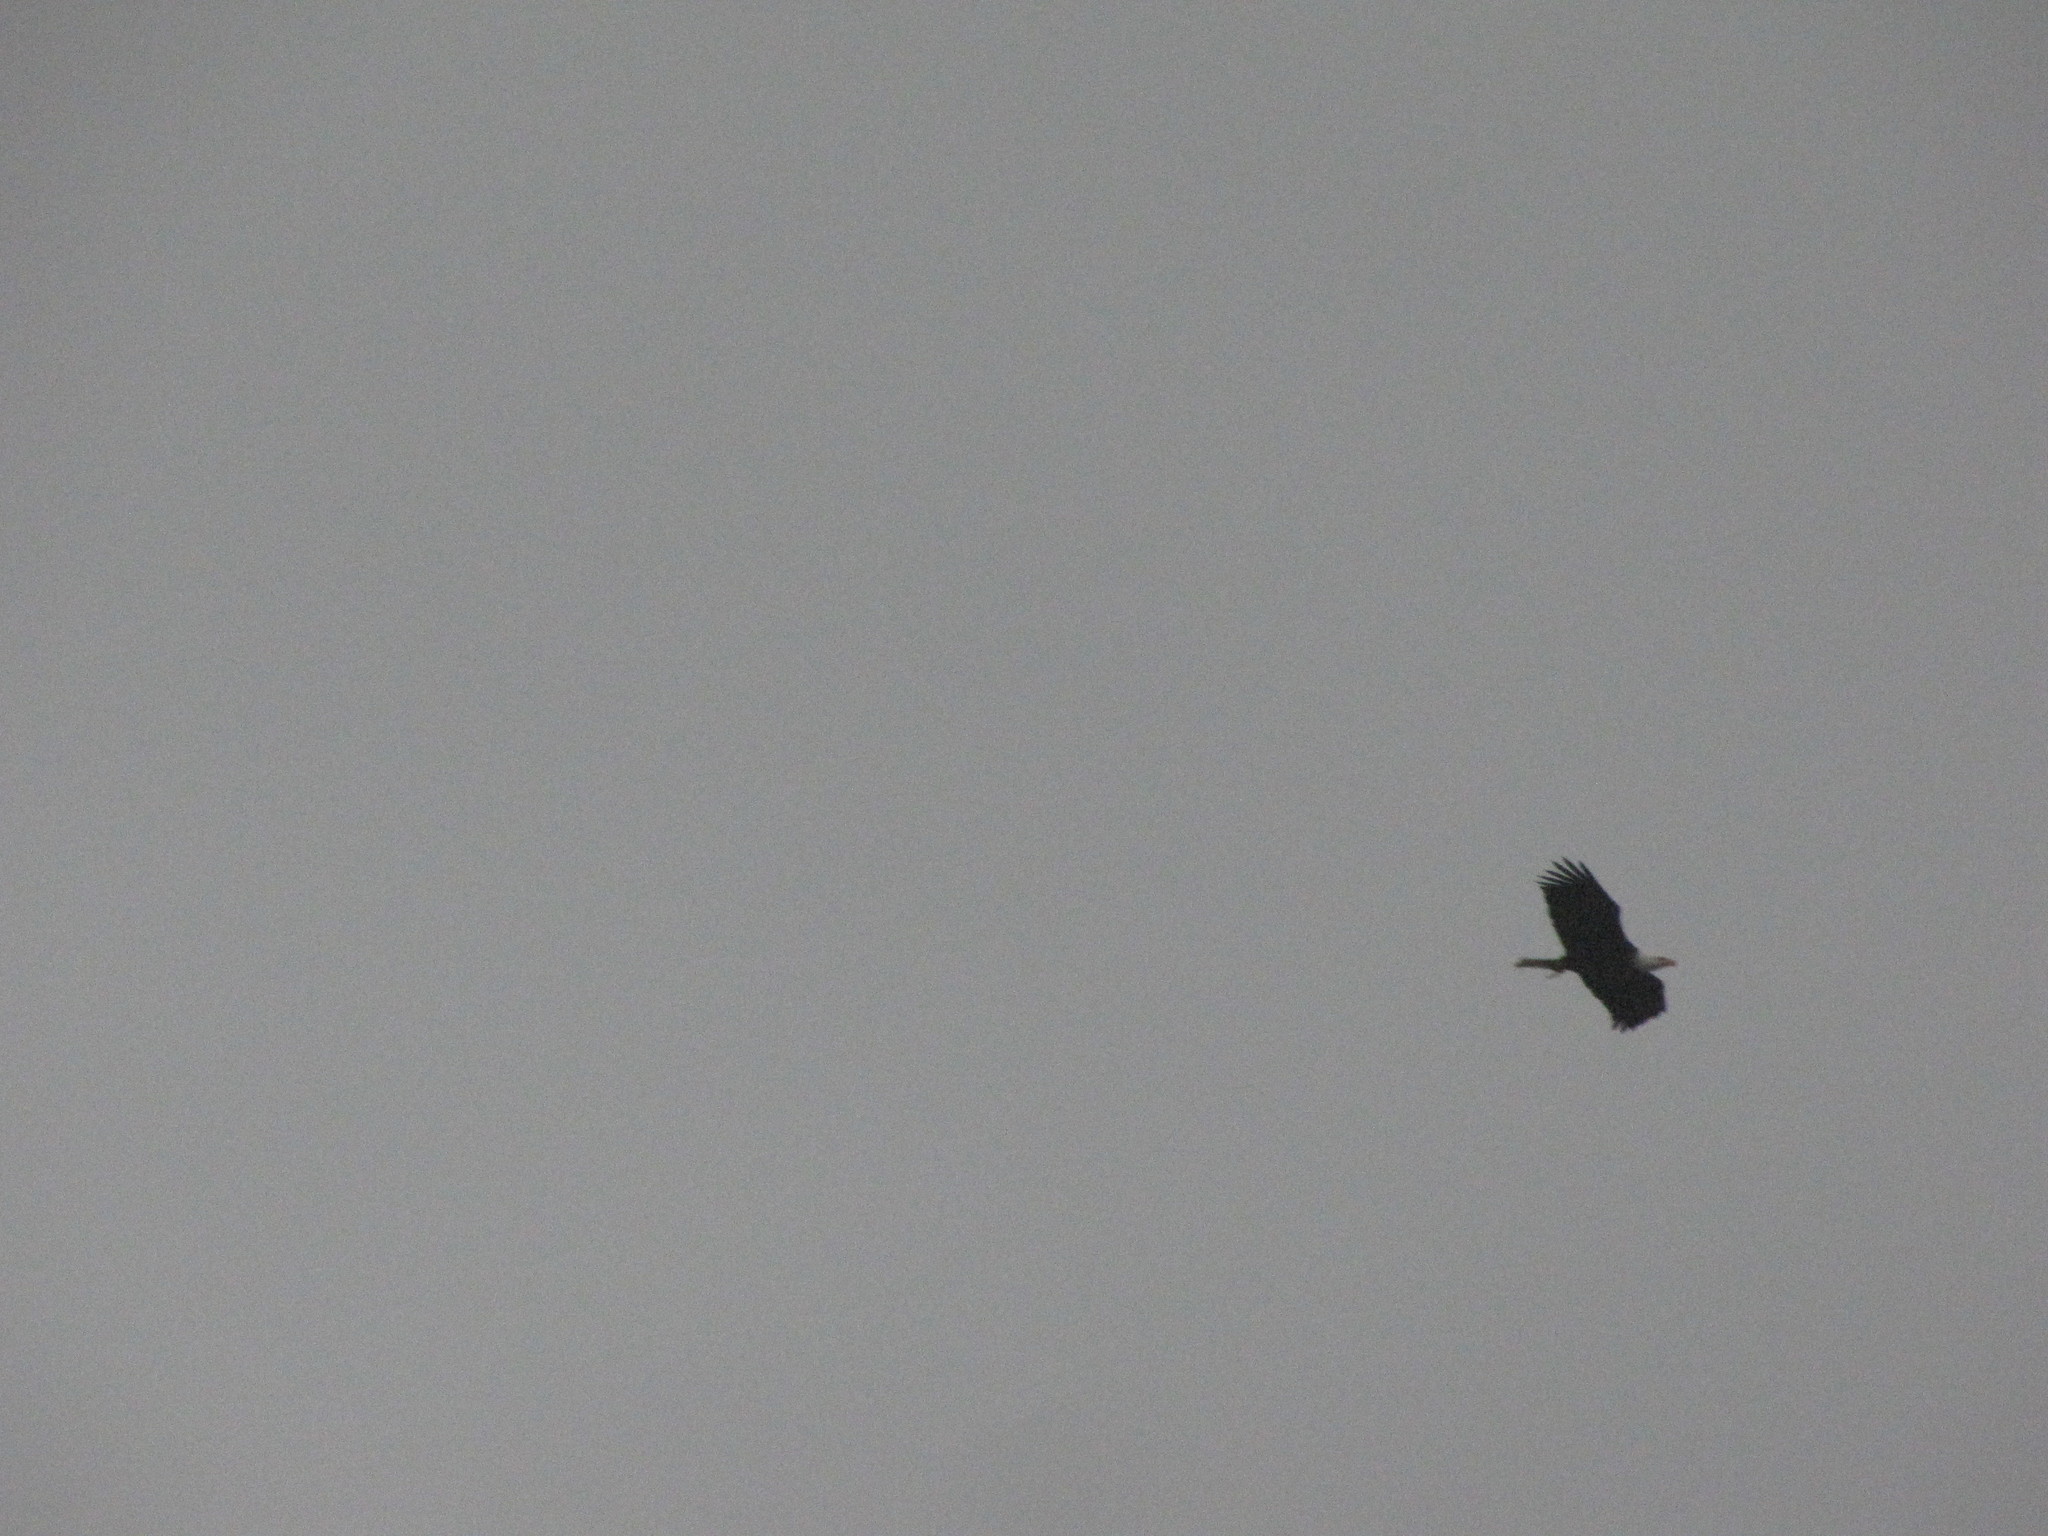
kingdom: Animalia
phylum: Chordata
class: Aves
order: Accipitriformes
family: Accipitridae
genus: Haliaeetus
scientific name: Haliaeetus leucocephalus
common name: Bald eagle
